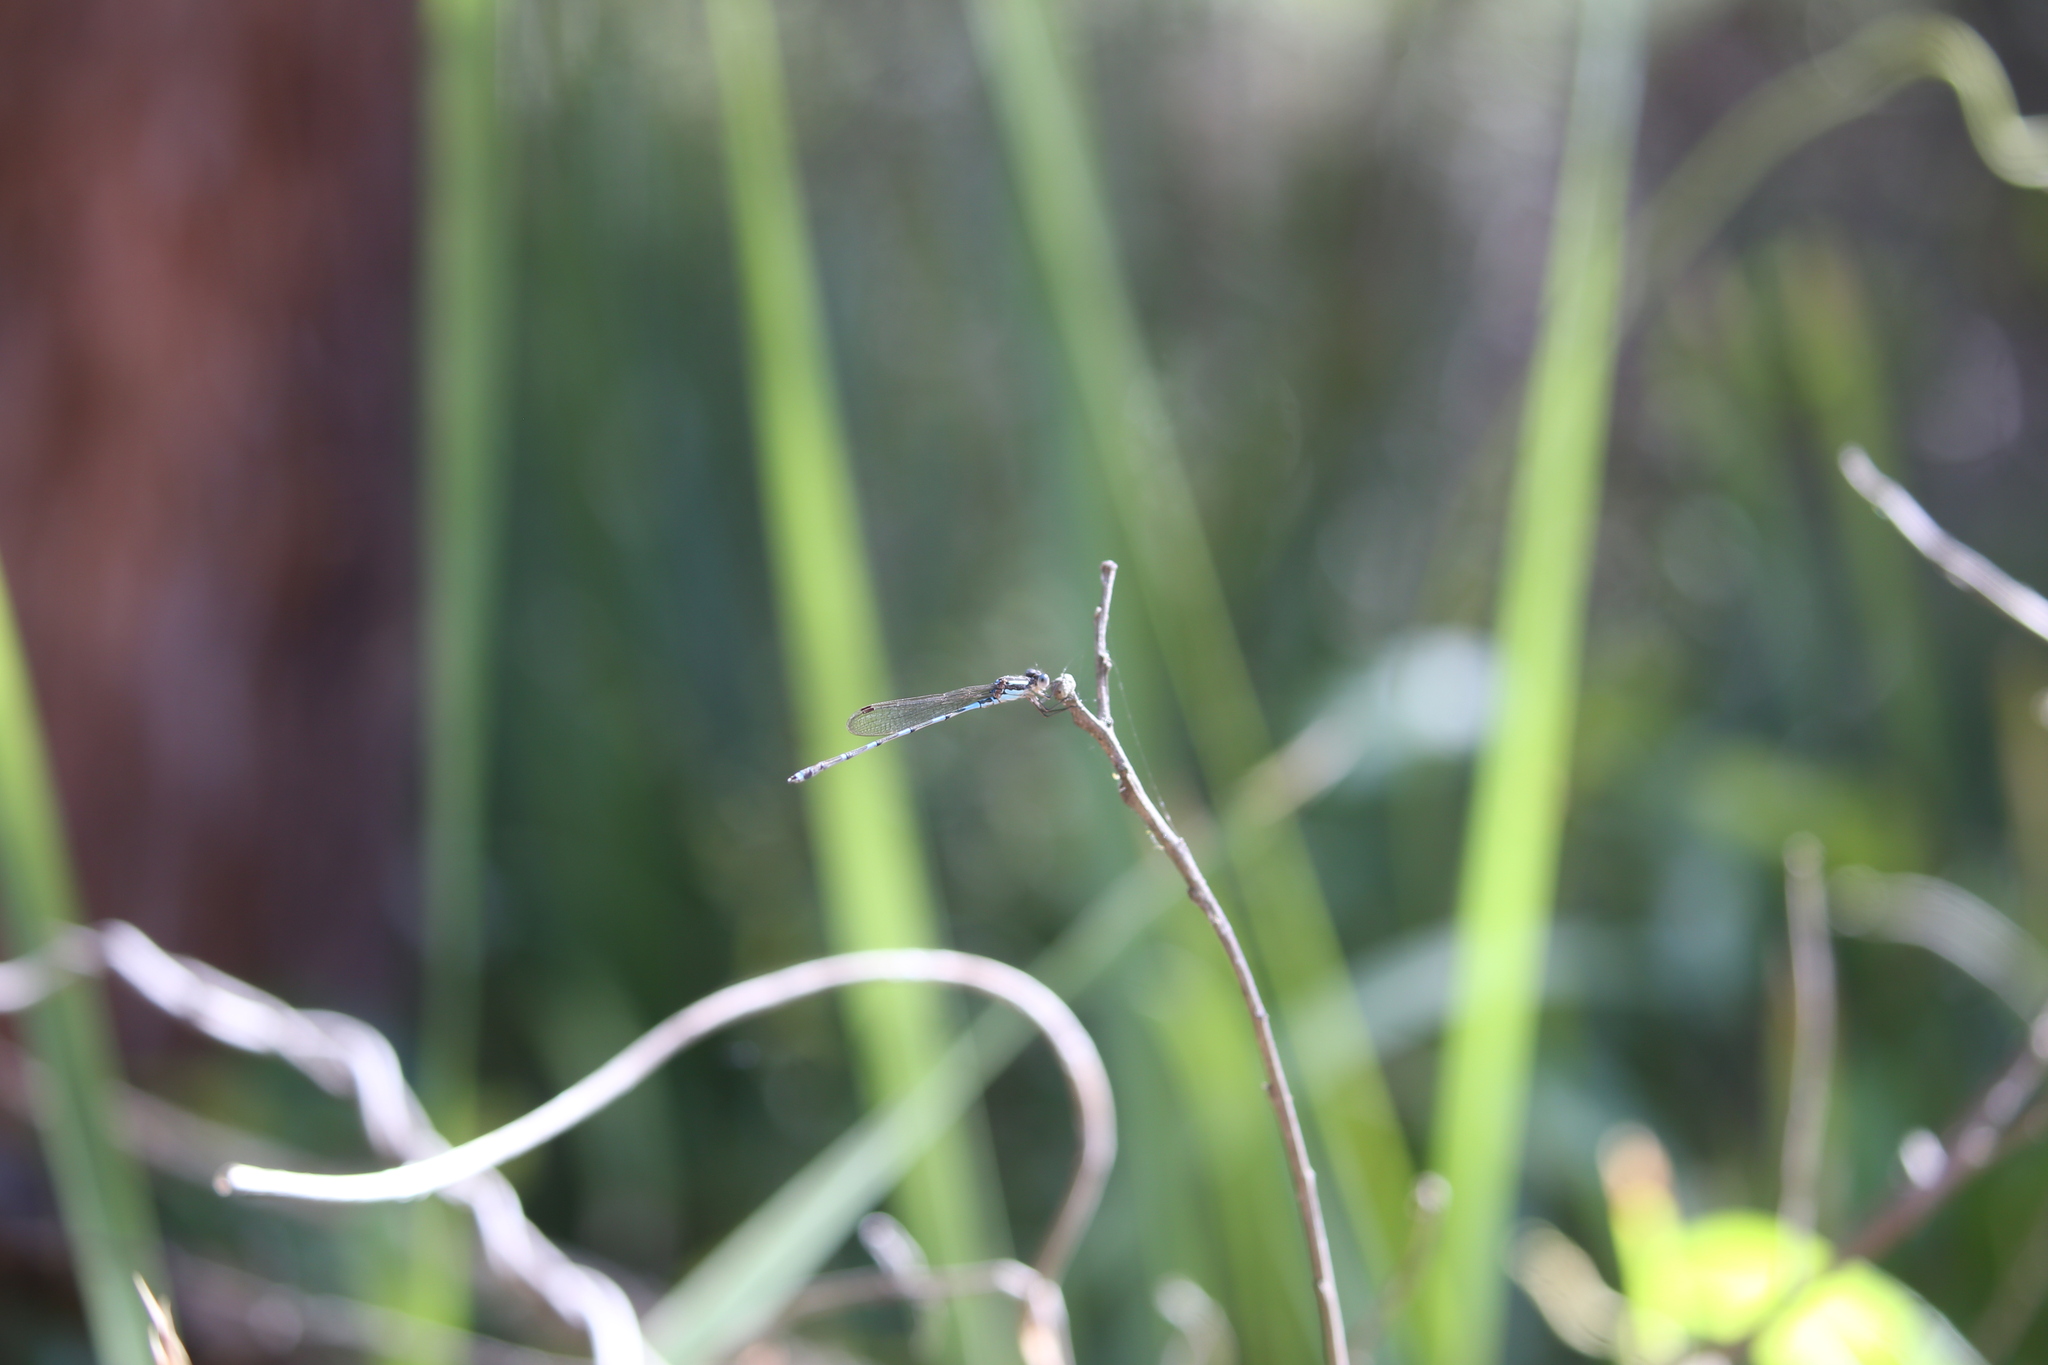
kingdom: Animalia
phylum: Arthropoda
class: Insecta
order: Odonata
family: Lestidae
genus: Austrolestes
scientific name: Austrolestes leda
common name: Wandering ringtail
